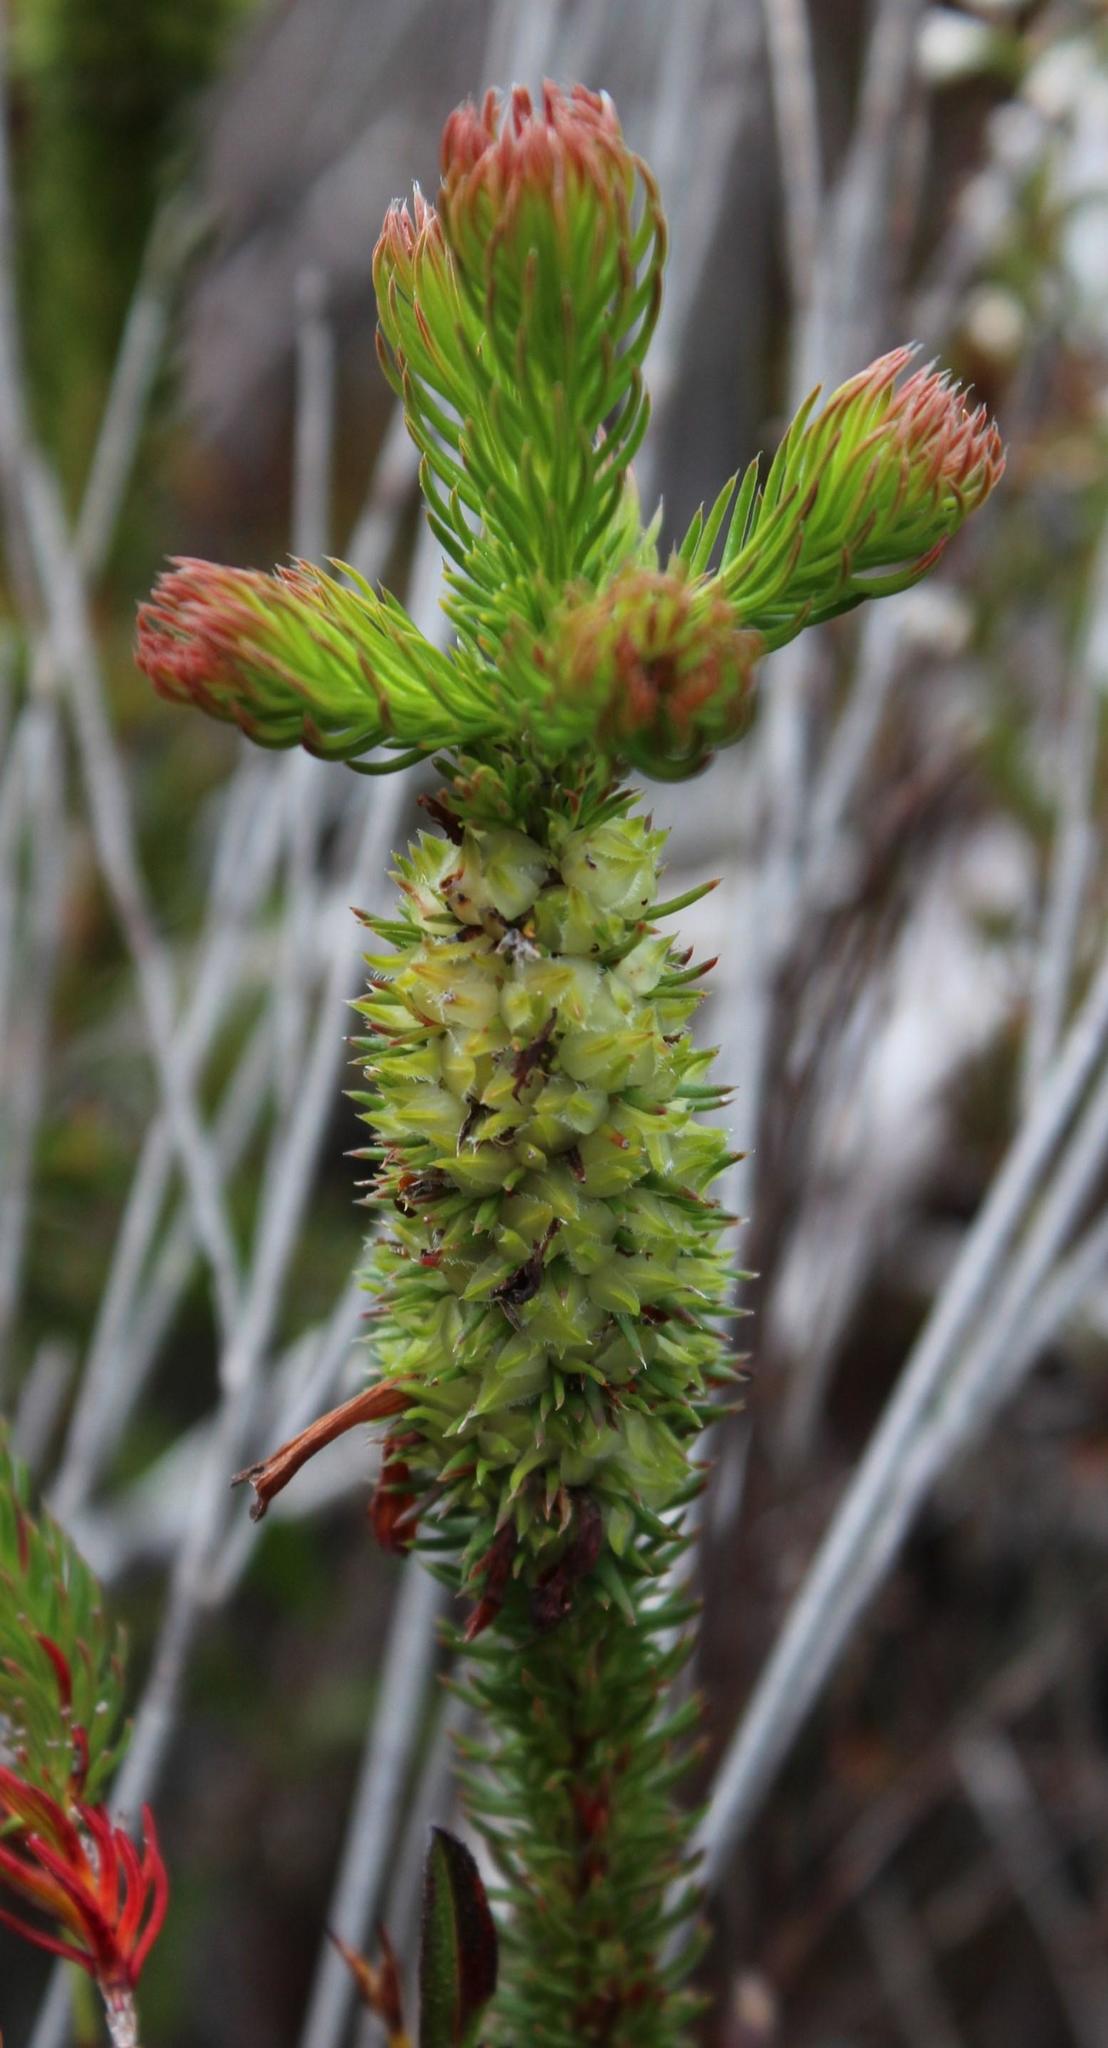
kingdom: Plantae
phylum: Tracheophyta
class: Magnoliopsida
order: Ericales
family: Ericaceae
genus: Erica
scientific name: Erica sessiliflora
